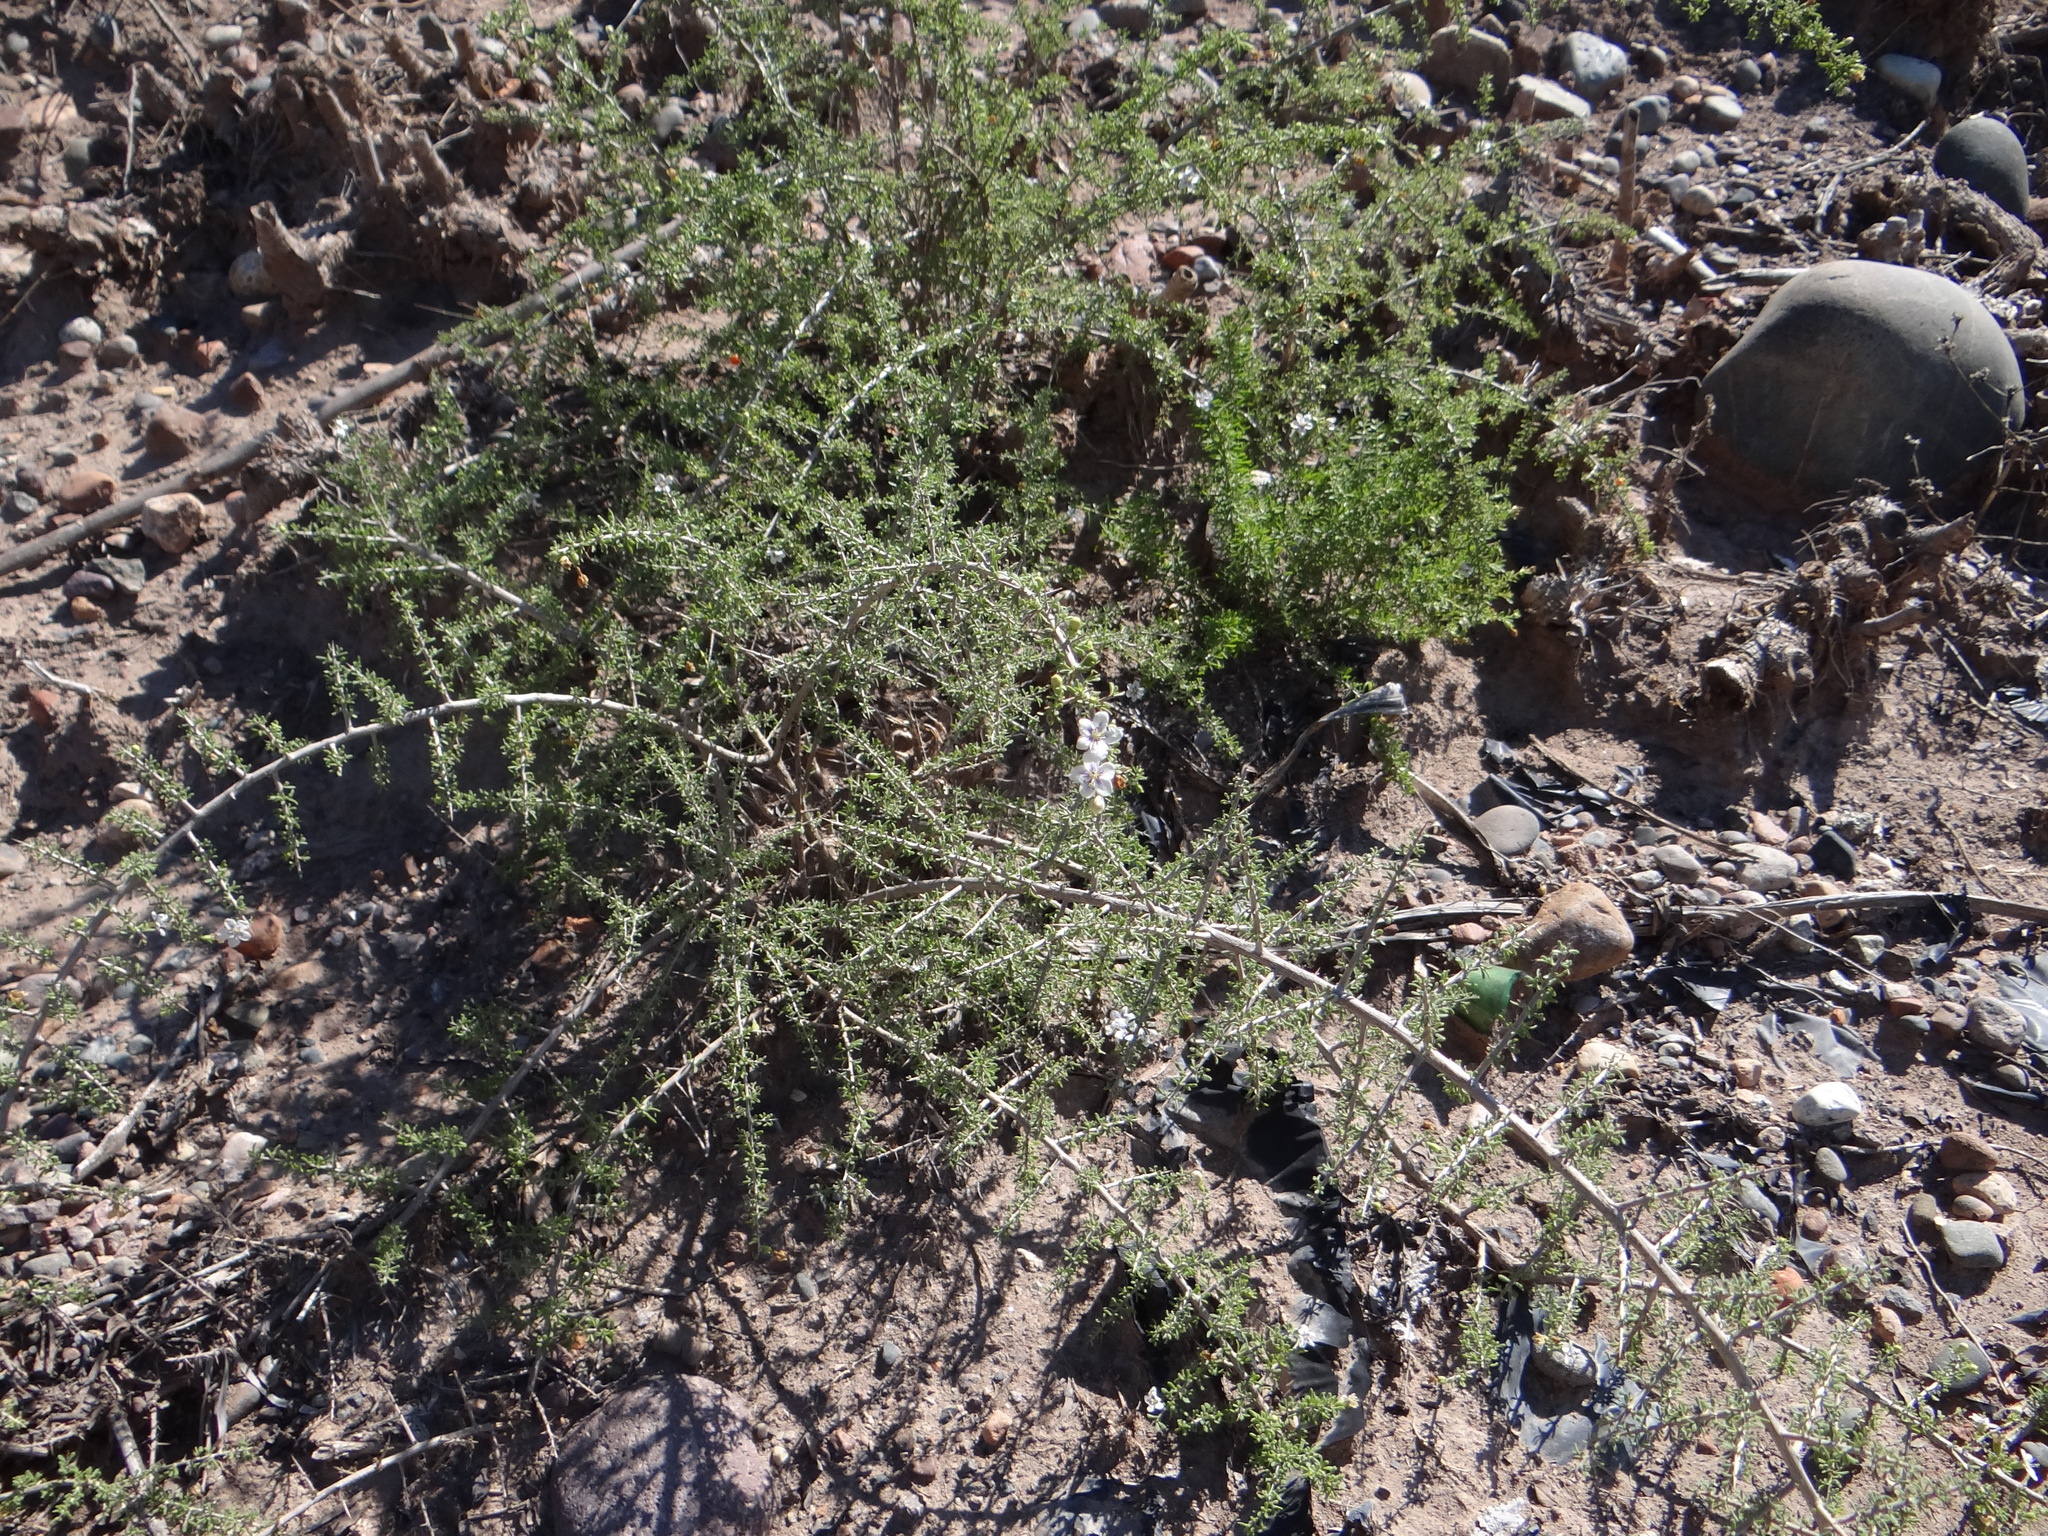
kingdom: Plantae
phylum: Tracheophyta
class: Magnoliopsida
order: Solanales
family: Solanaceae
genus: Lycium
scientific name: Lycium chilense
